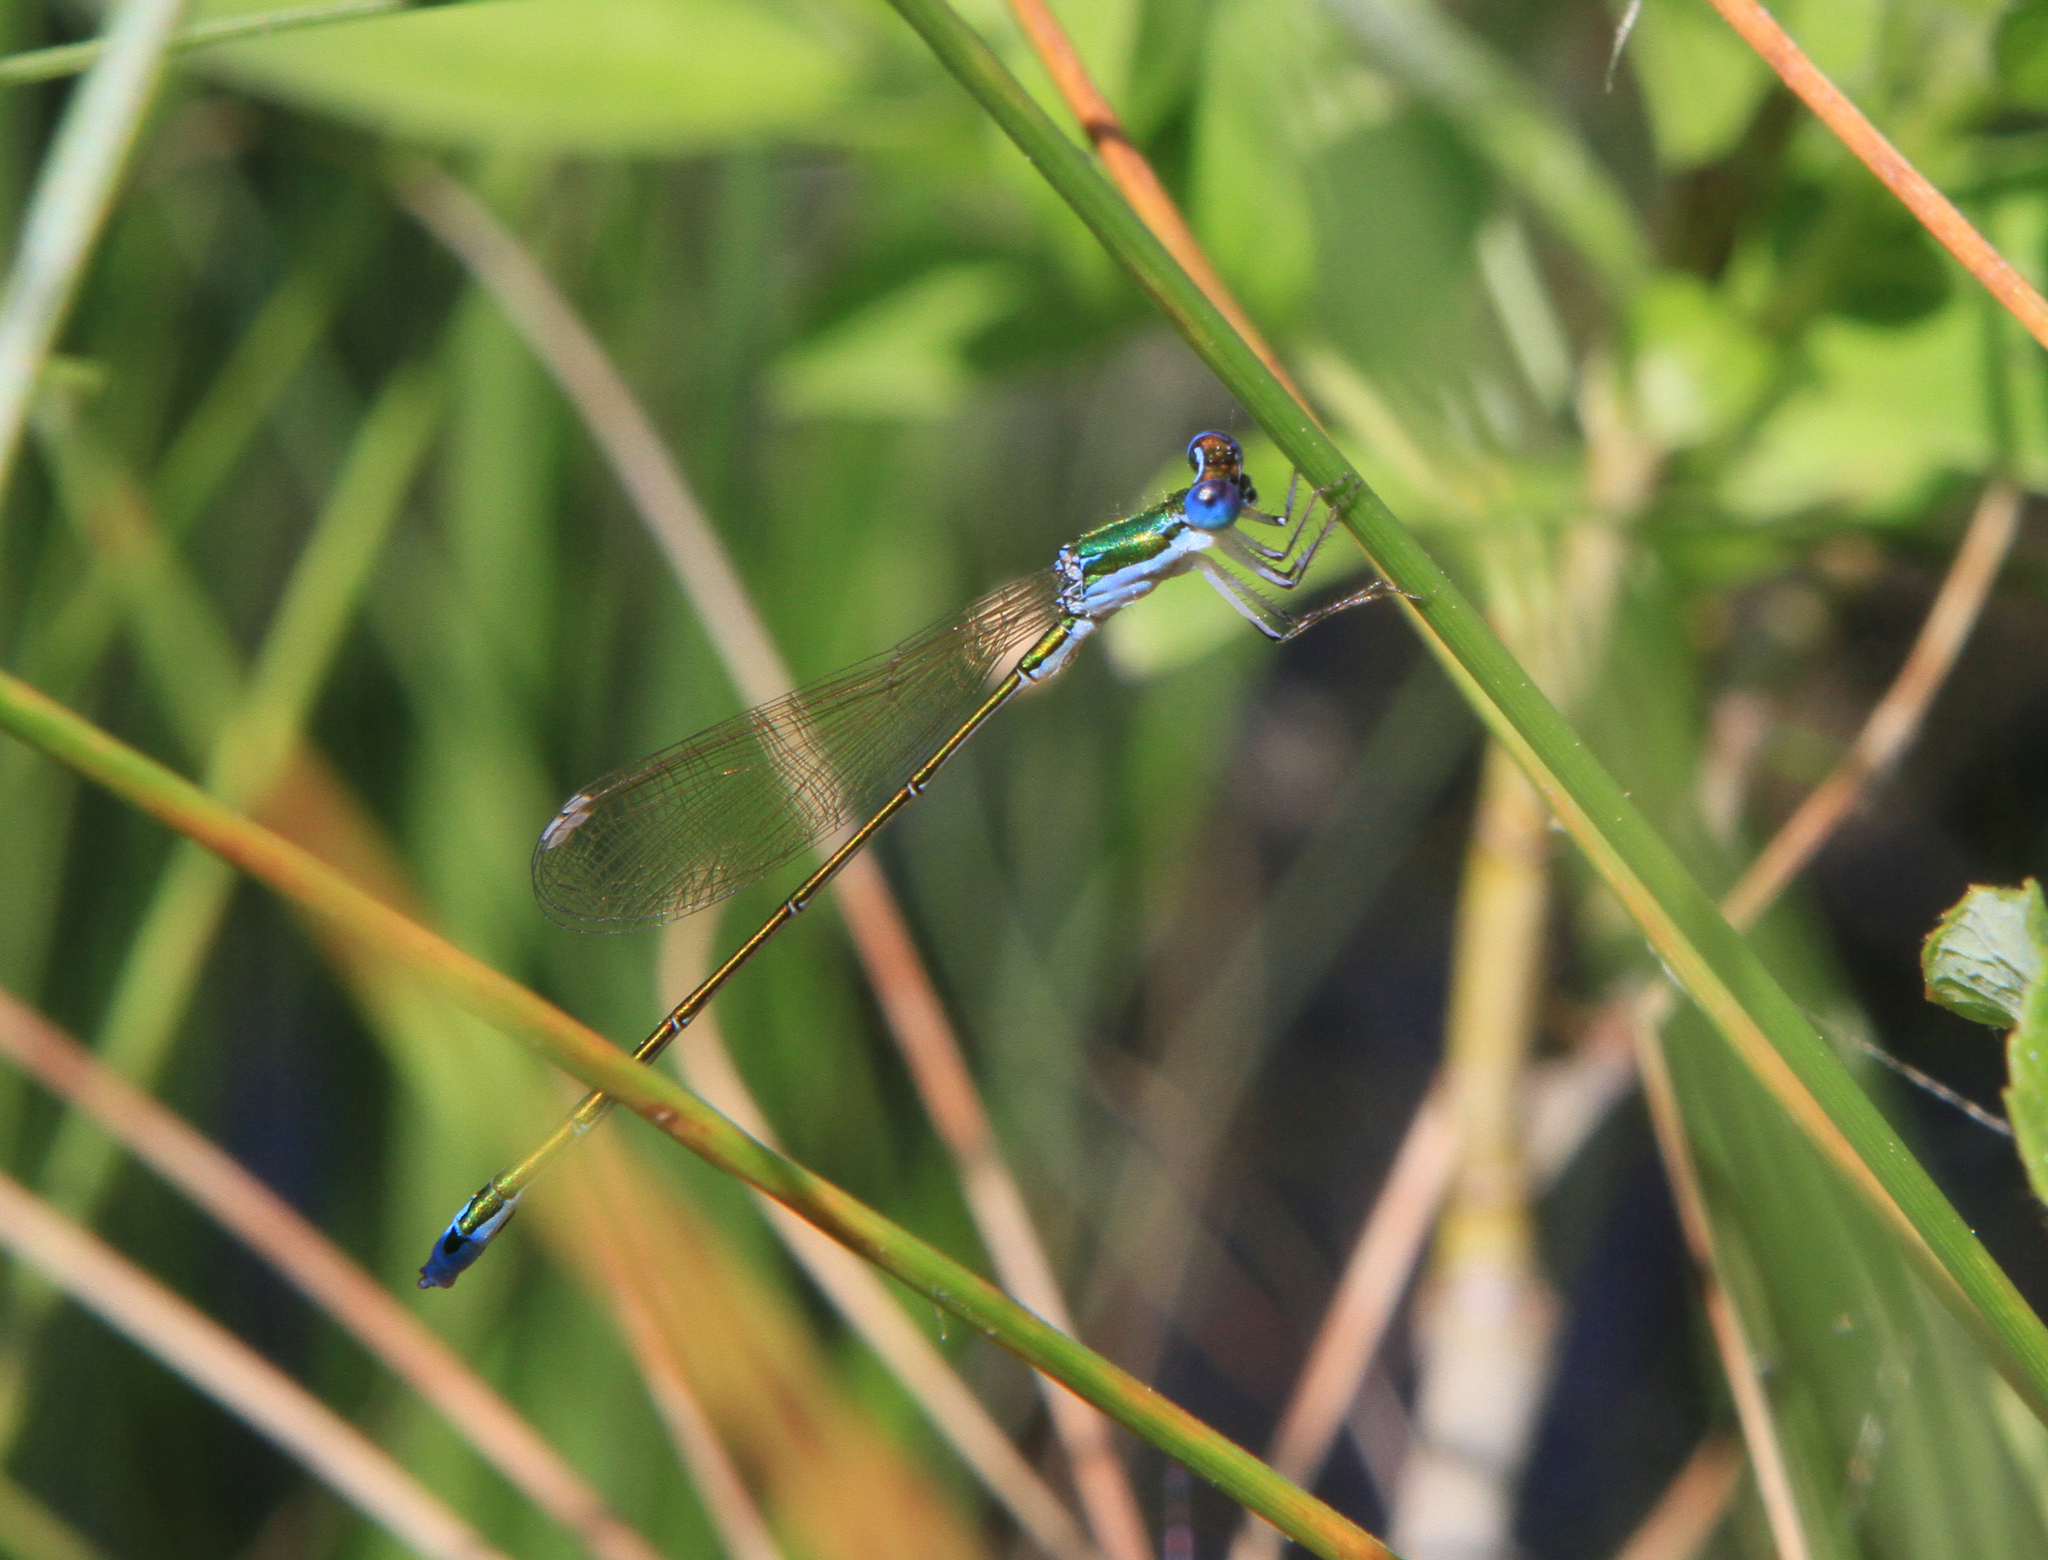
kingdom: Animalia
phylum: Arthropoda
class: Insecta
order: Odonata
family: Coenagrionidae
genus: Nehalennia
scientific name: Nehalennia speciosa
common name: Sedgling
